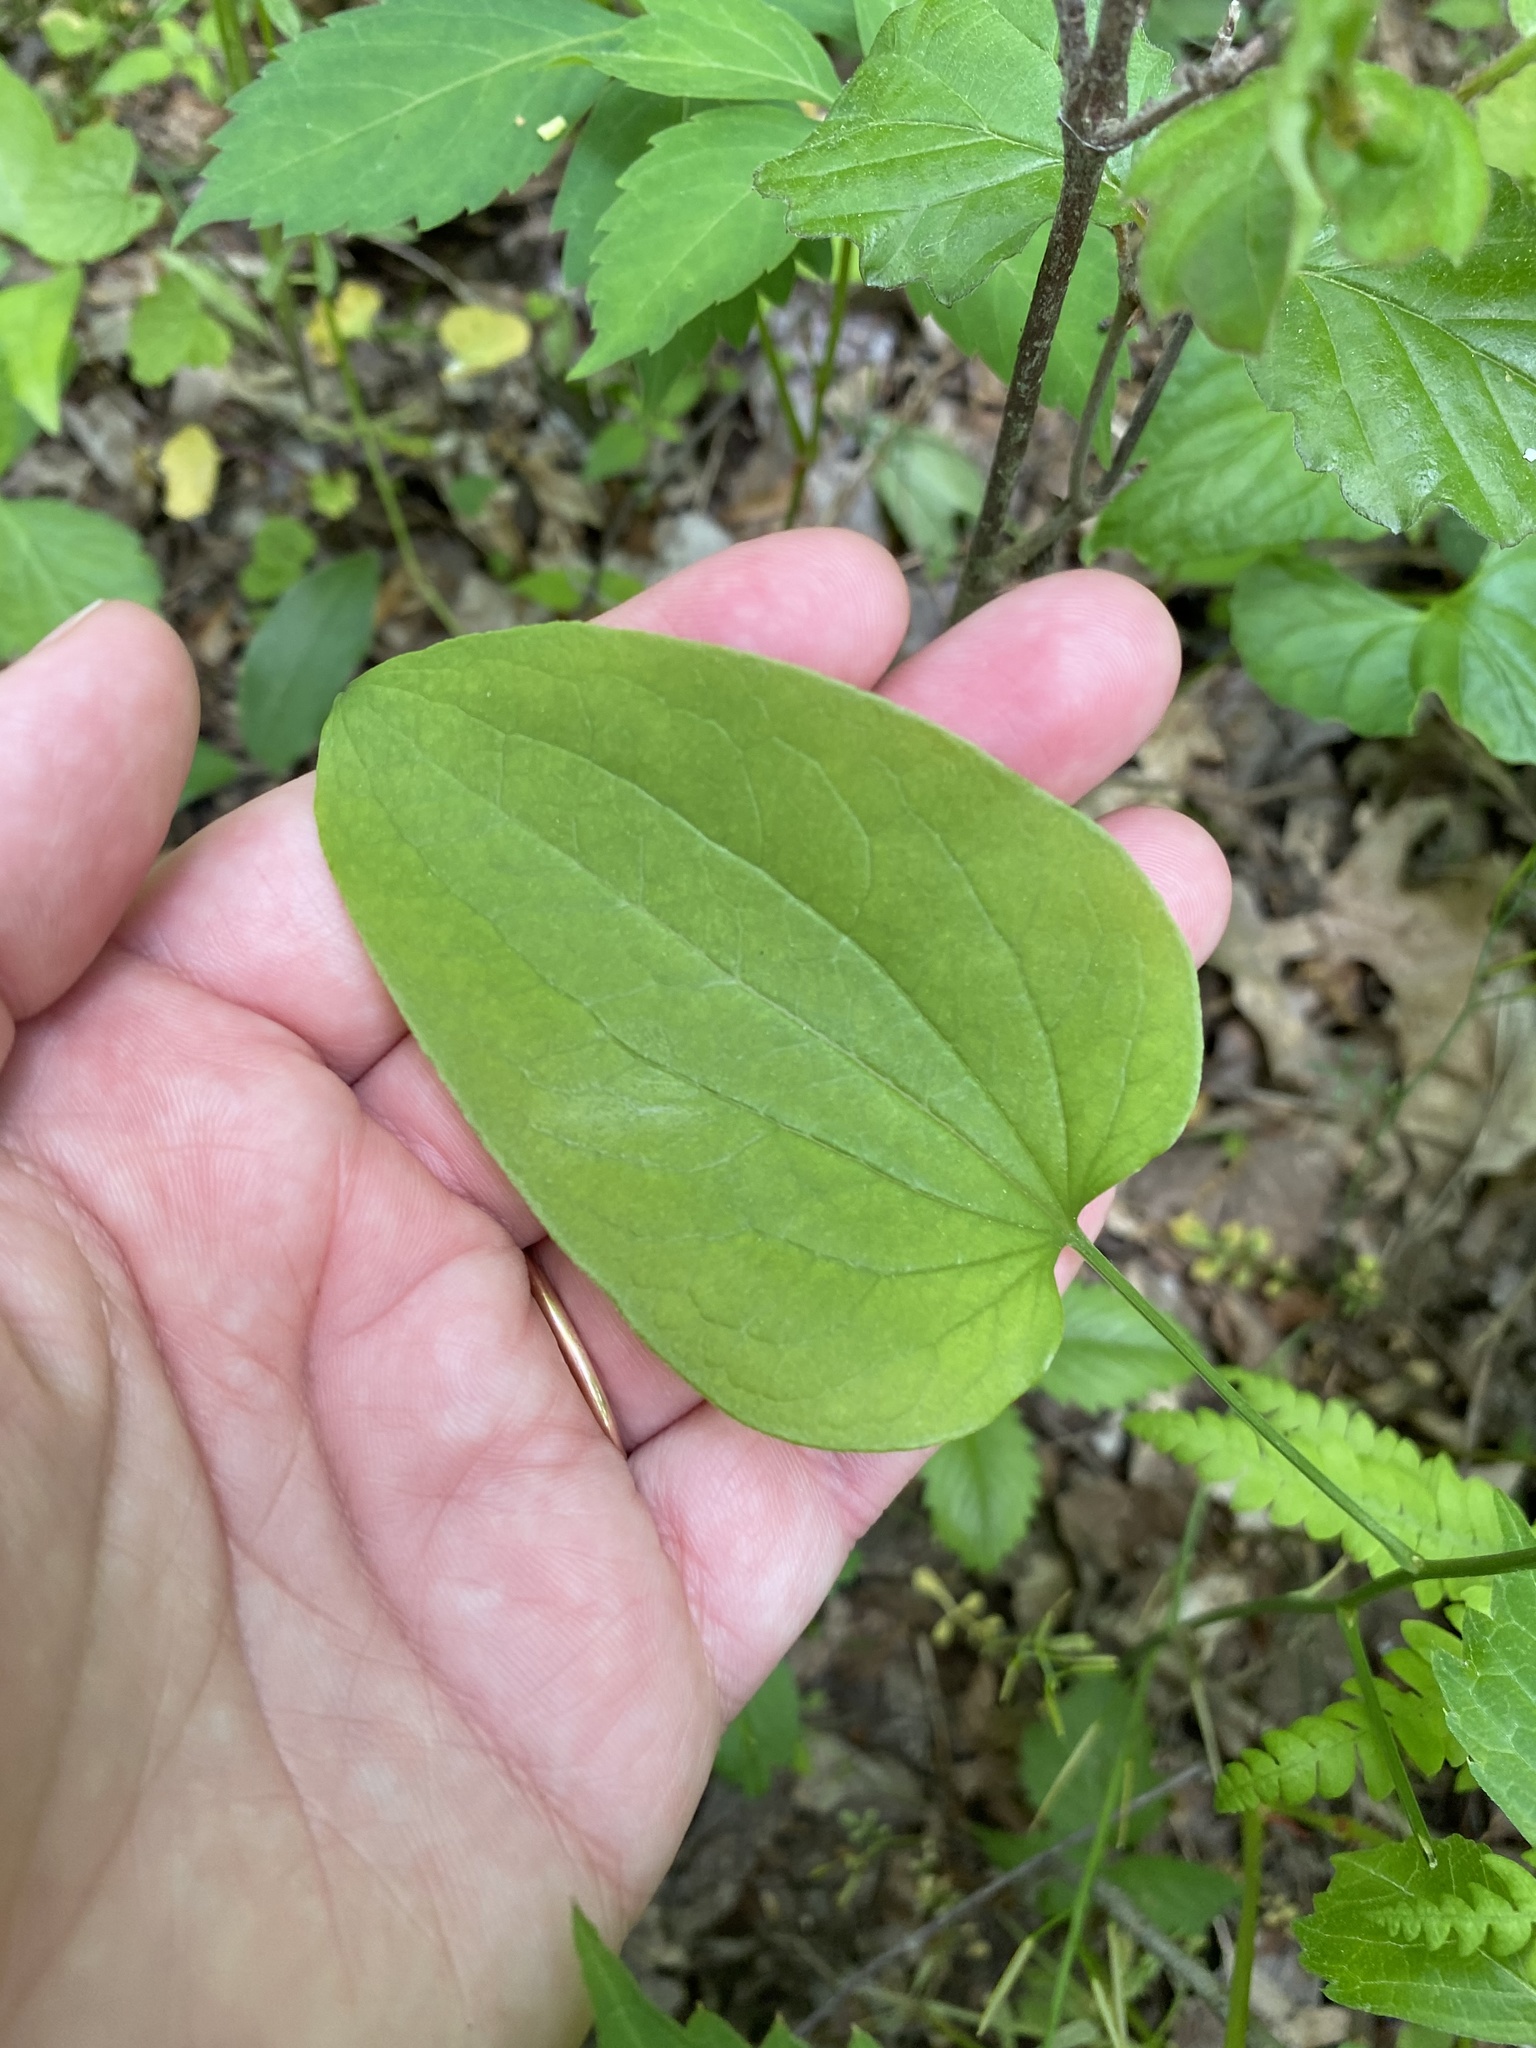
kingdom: Plantae
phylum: Tracheophyta
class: Liliopsida
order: Liliales
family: Smilacaceae
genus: Smilax
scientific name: Smilax herbacea
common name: Jacob's-ladder
